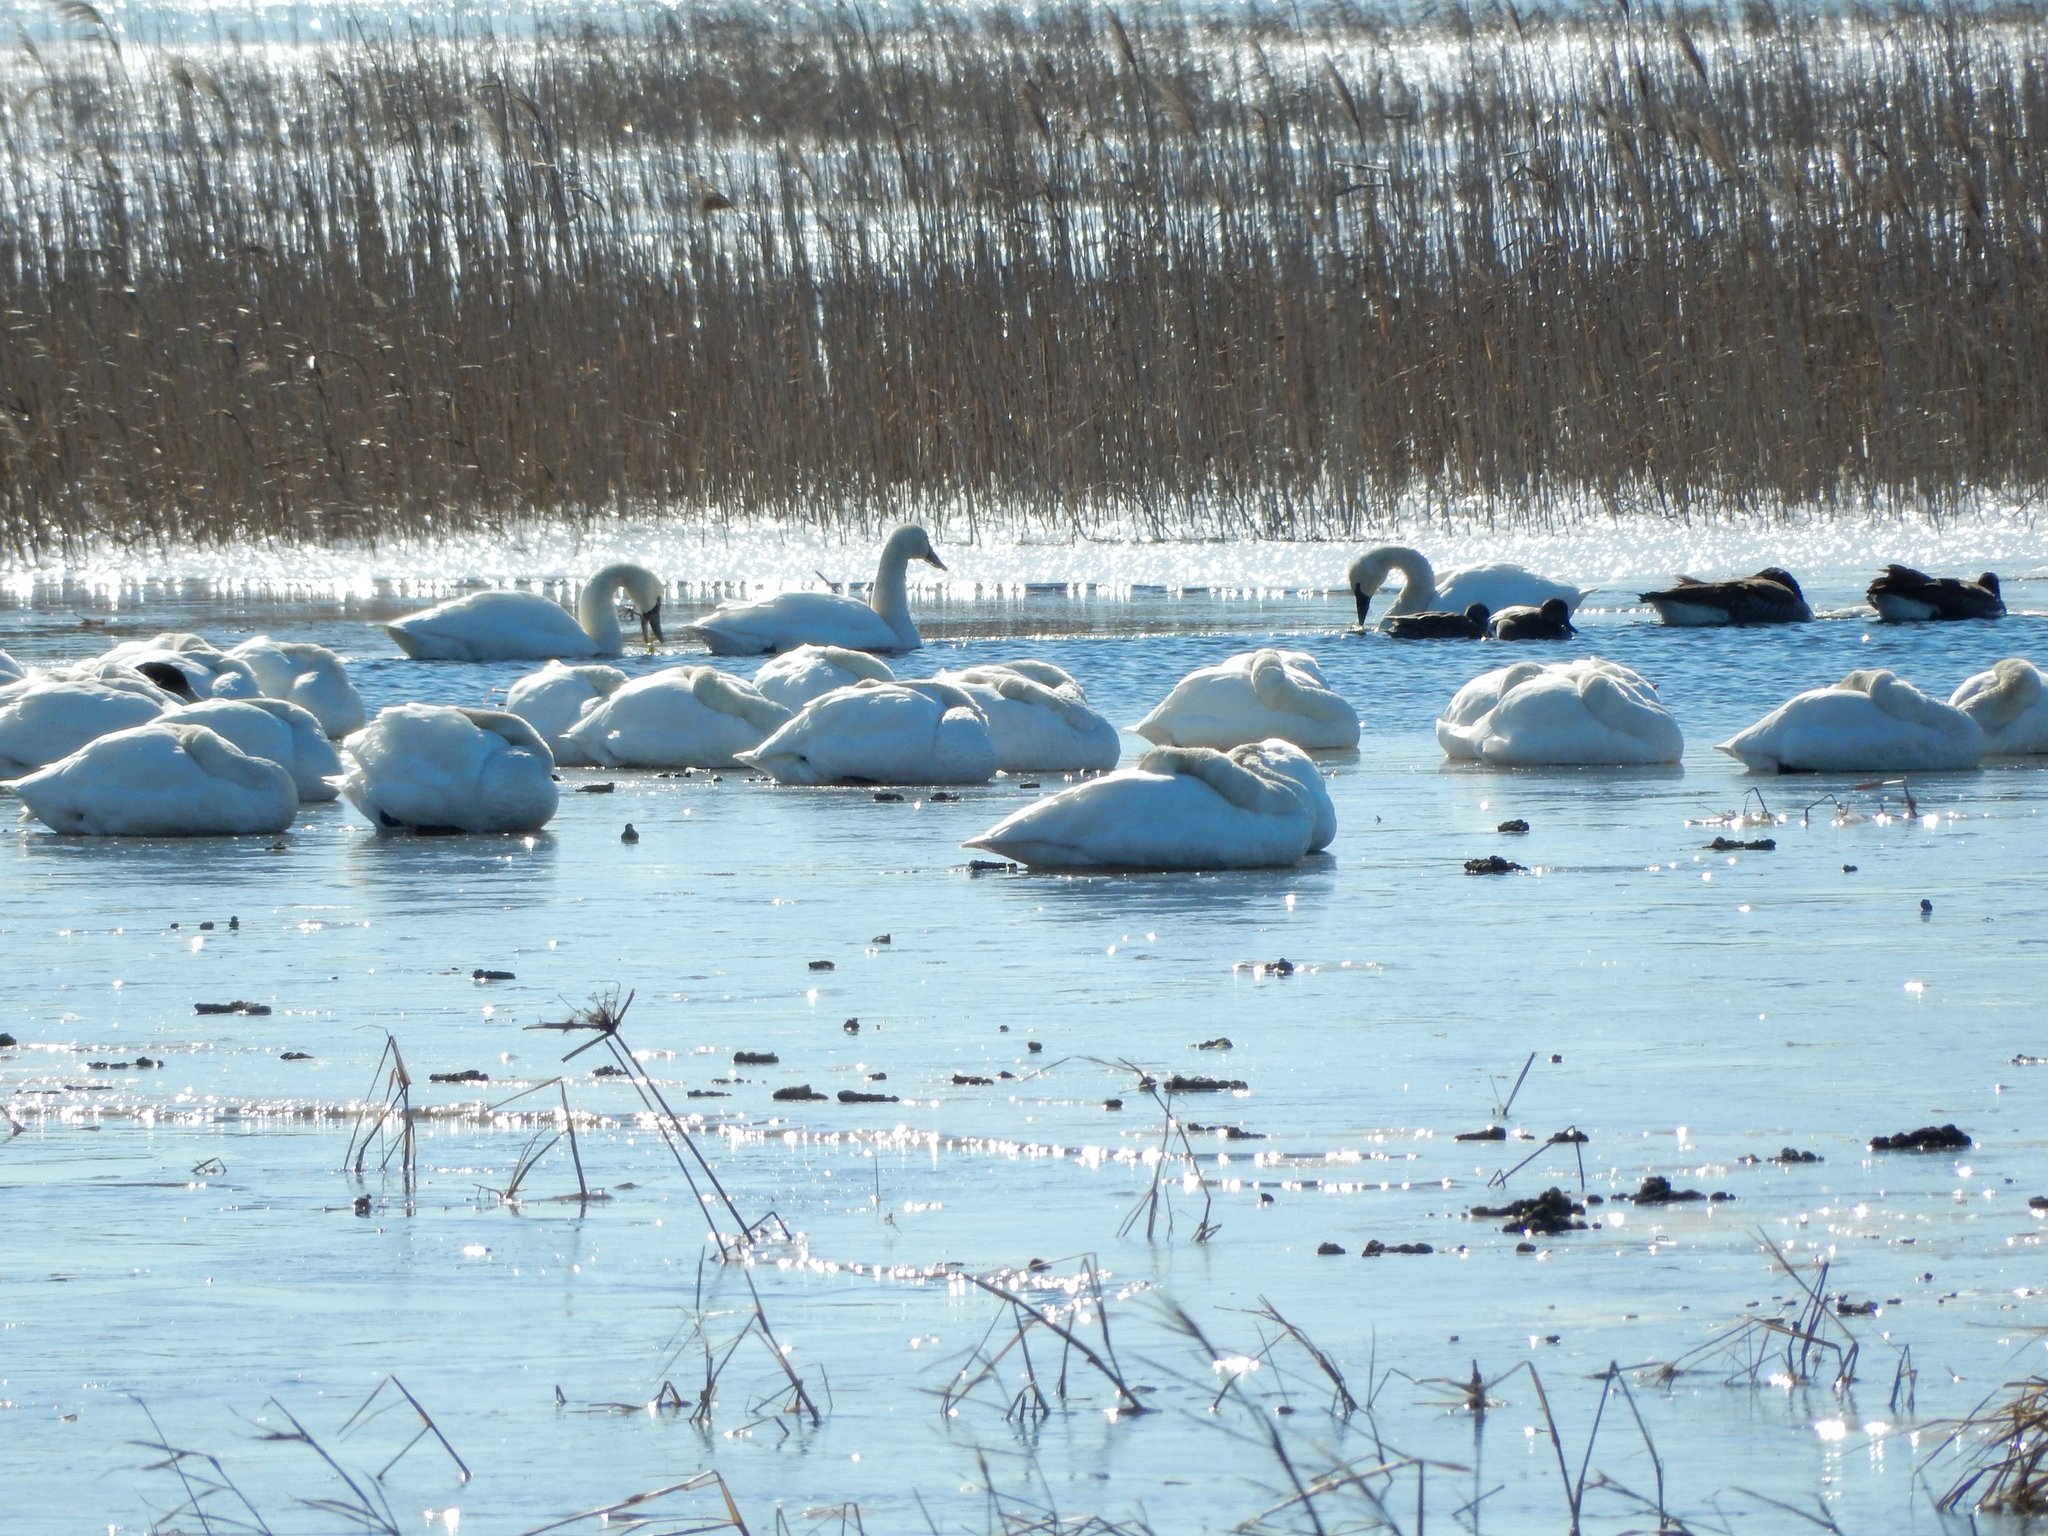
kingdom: Animalia
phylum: Chordata
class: Aves
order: Anseriformes
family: Anatidae
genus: Cygnus
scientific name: Cygnus columbianus
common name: Tundra swan
